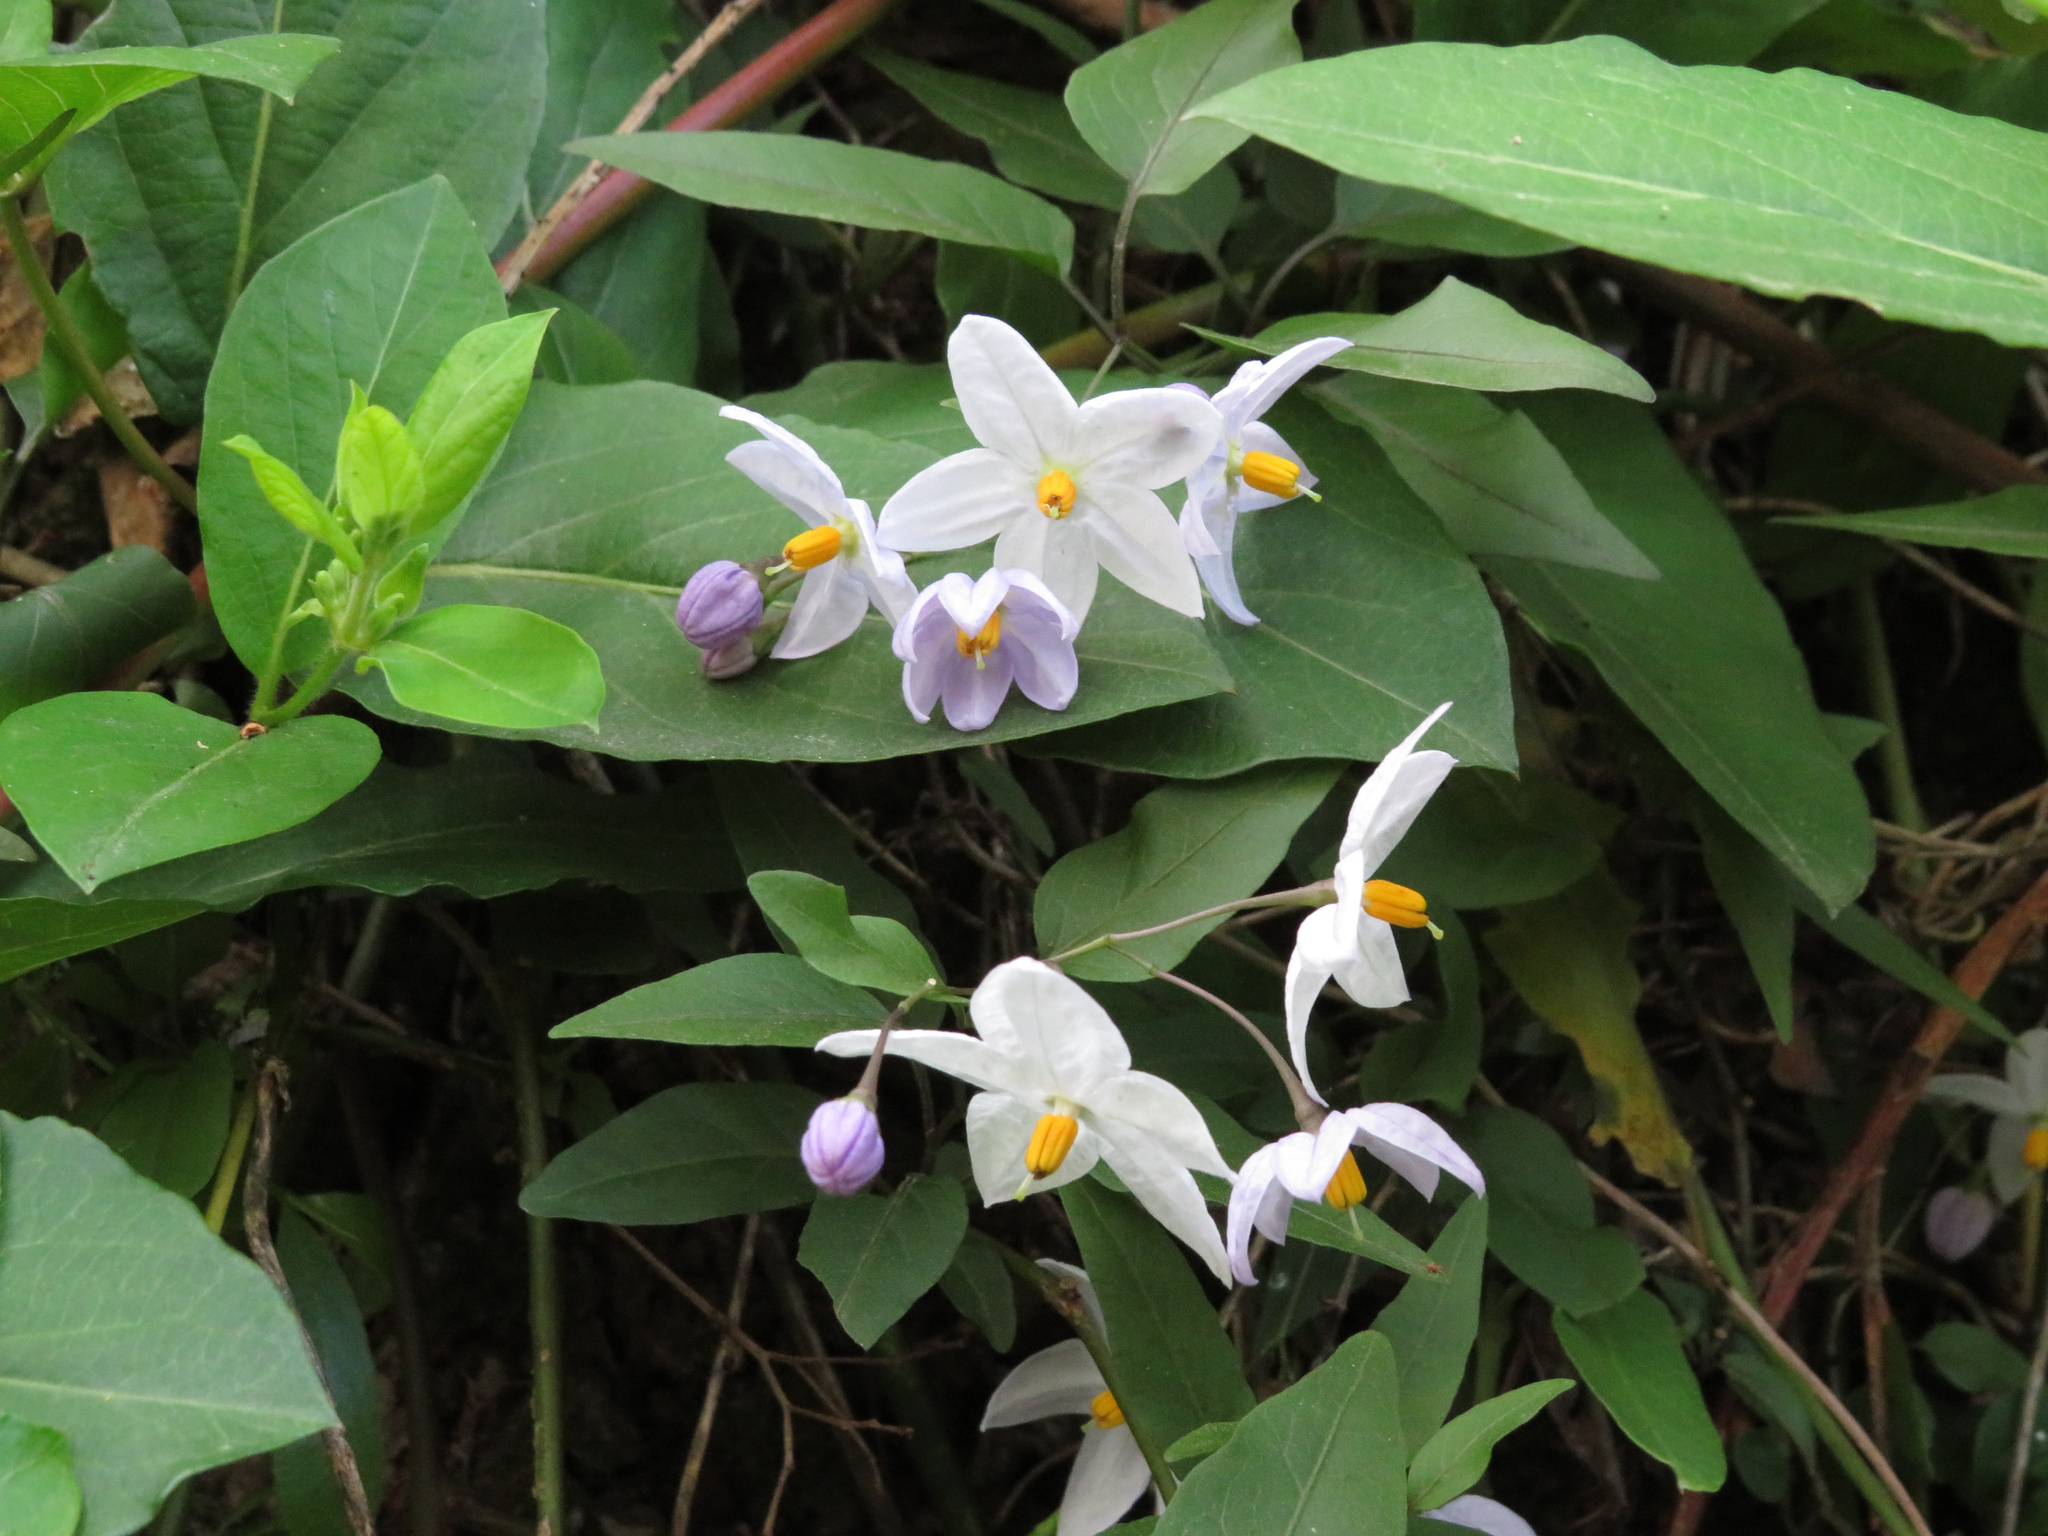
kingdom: Plantae
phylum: Tracheophyta
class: Magnoliopsida
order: Solanales
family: Solanaceae
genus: Solanum
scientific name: Solanum laxum
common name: Nightshade
